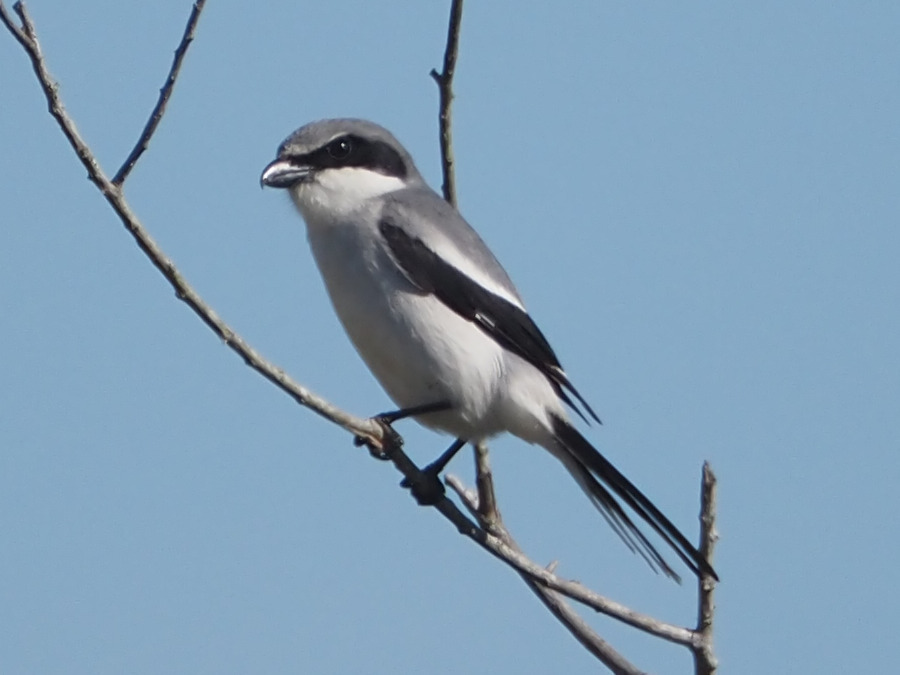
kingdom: Animalia
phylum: Chordata
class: Aves
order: Passeriformes
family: Laniidae
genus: Lanius
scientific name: Lanius ludovicianus
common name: Loggerhead shrike
